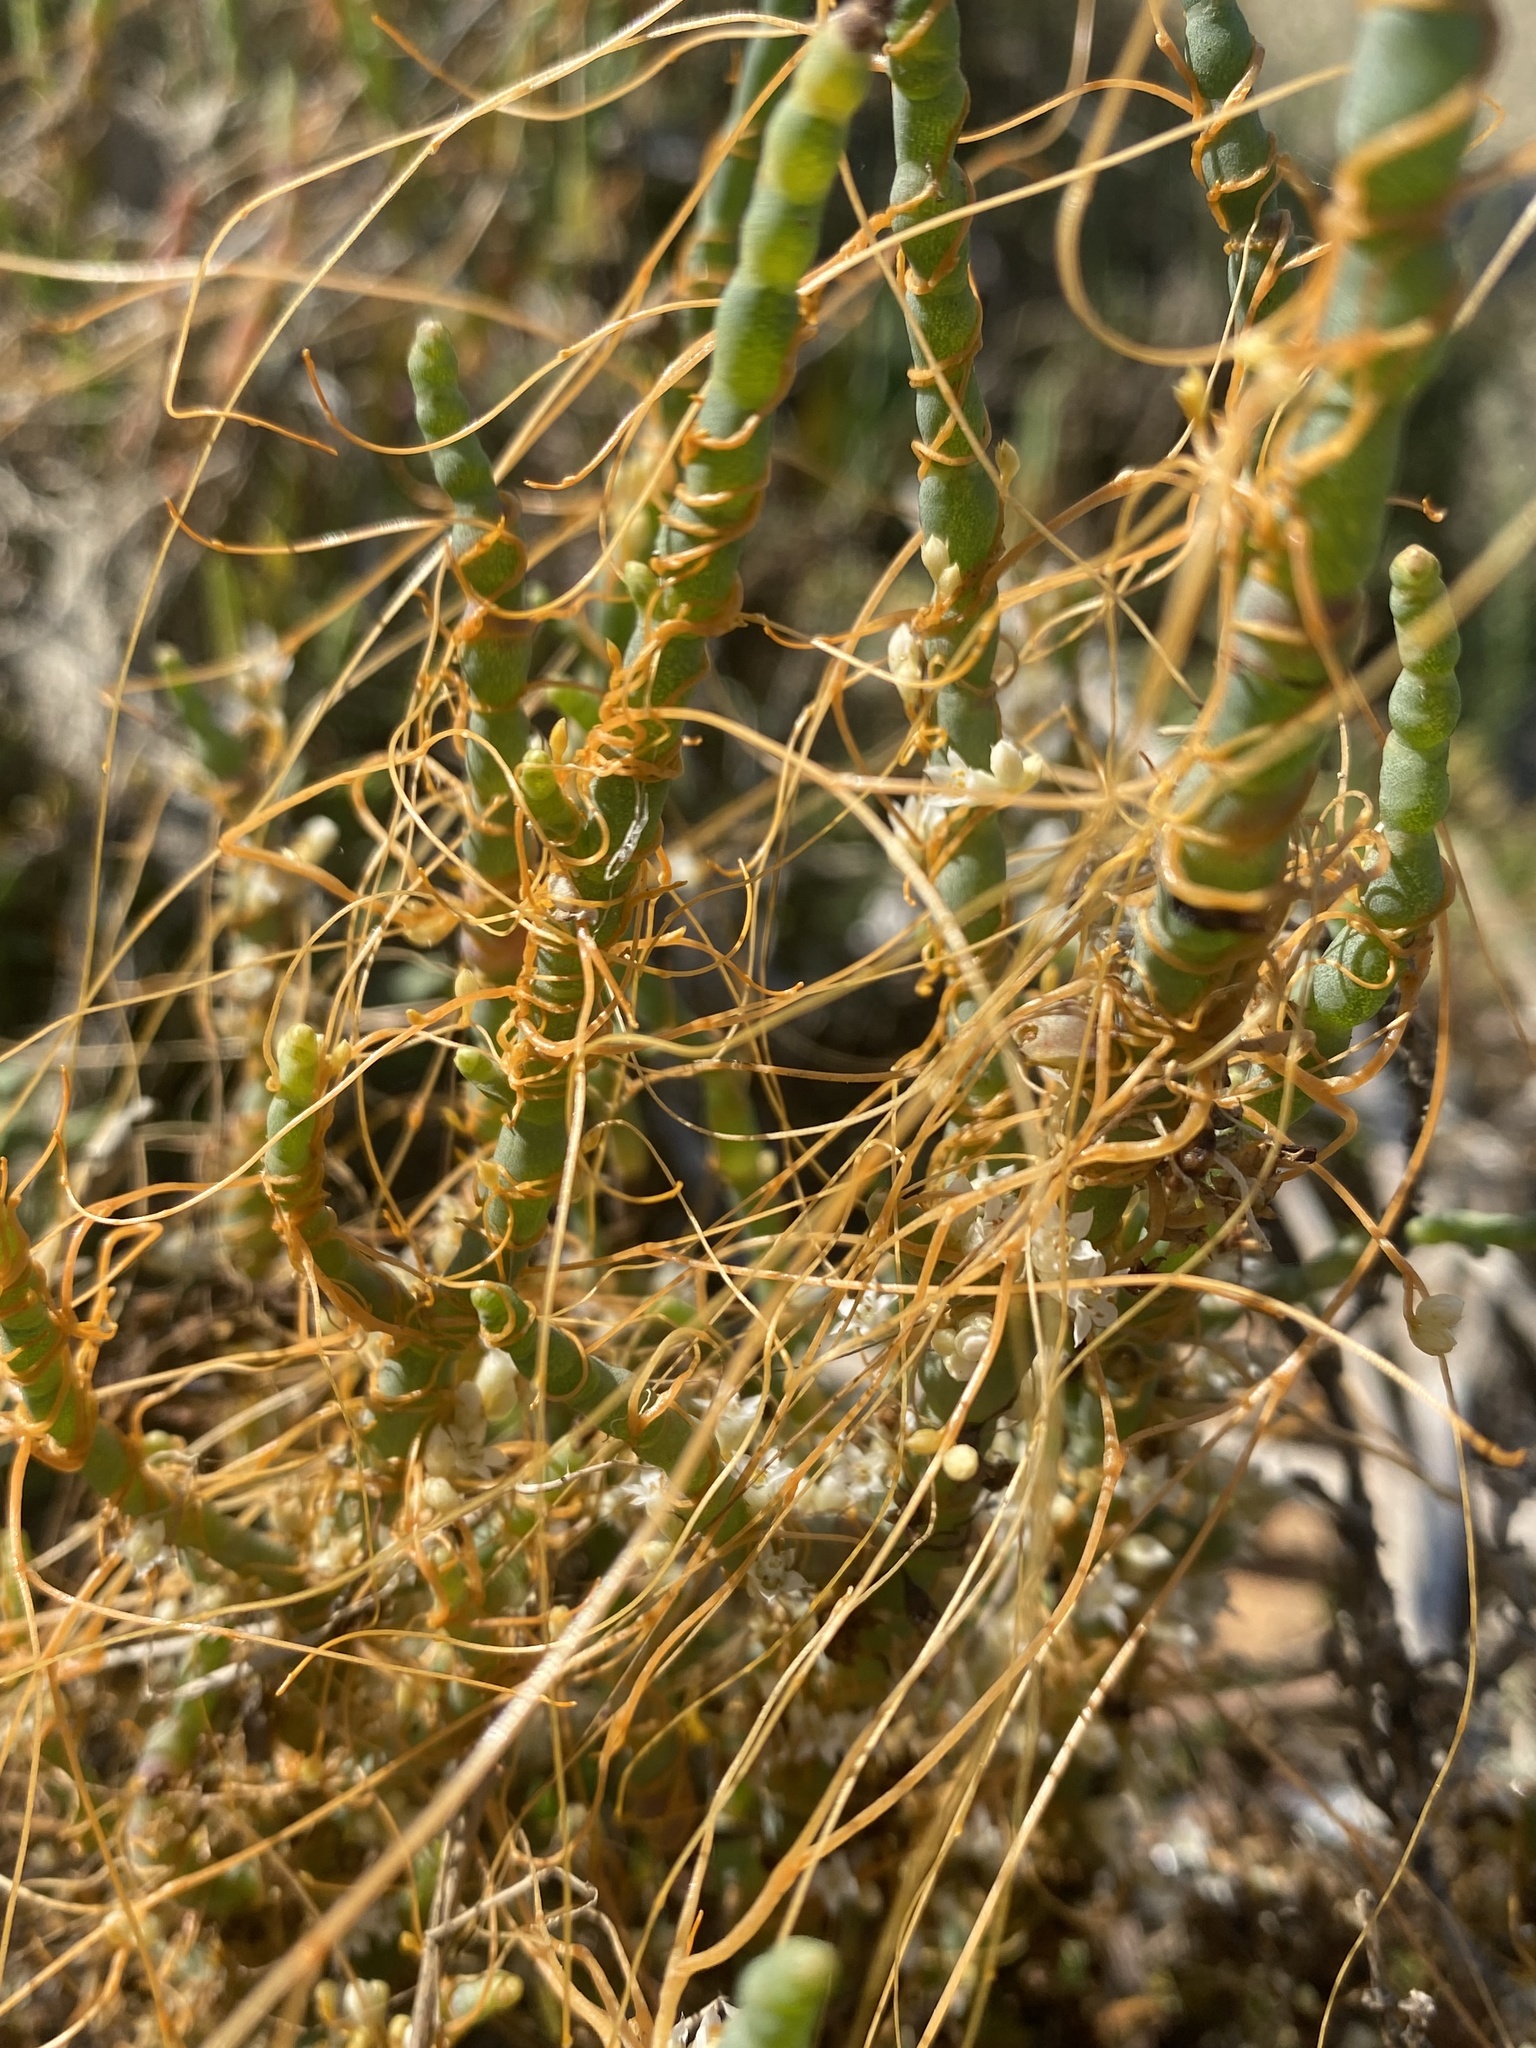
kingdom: Plantae
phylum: Tracheophyta
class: Magnoliopsida
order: Solanales
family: Convolvulaceae
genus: Cuscuta
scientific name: Cuscuta pacifica
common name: Large saltmarsh dodder
